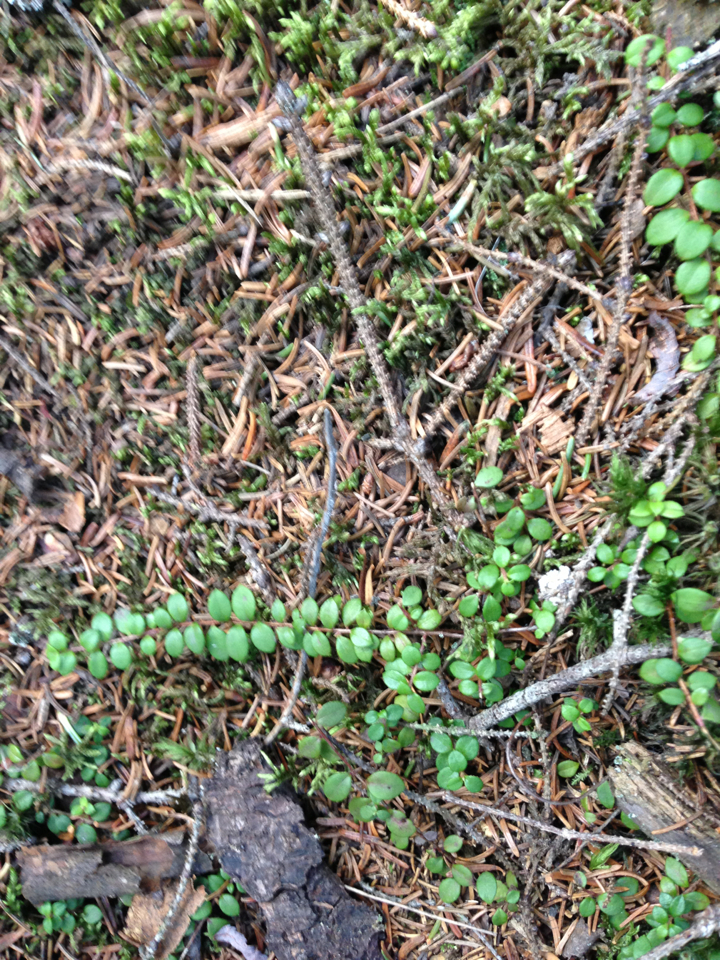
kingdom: Plantae
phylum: Tracheophyta
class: Magnoliopsida
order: Ericales
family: Ericaceae
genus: Gaultheria
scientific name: Gaultheria hispidula
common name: Cancer wintergreen
